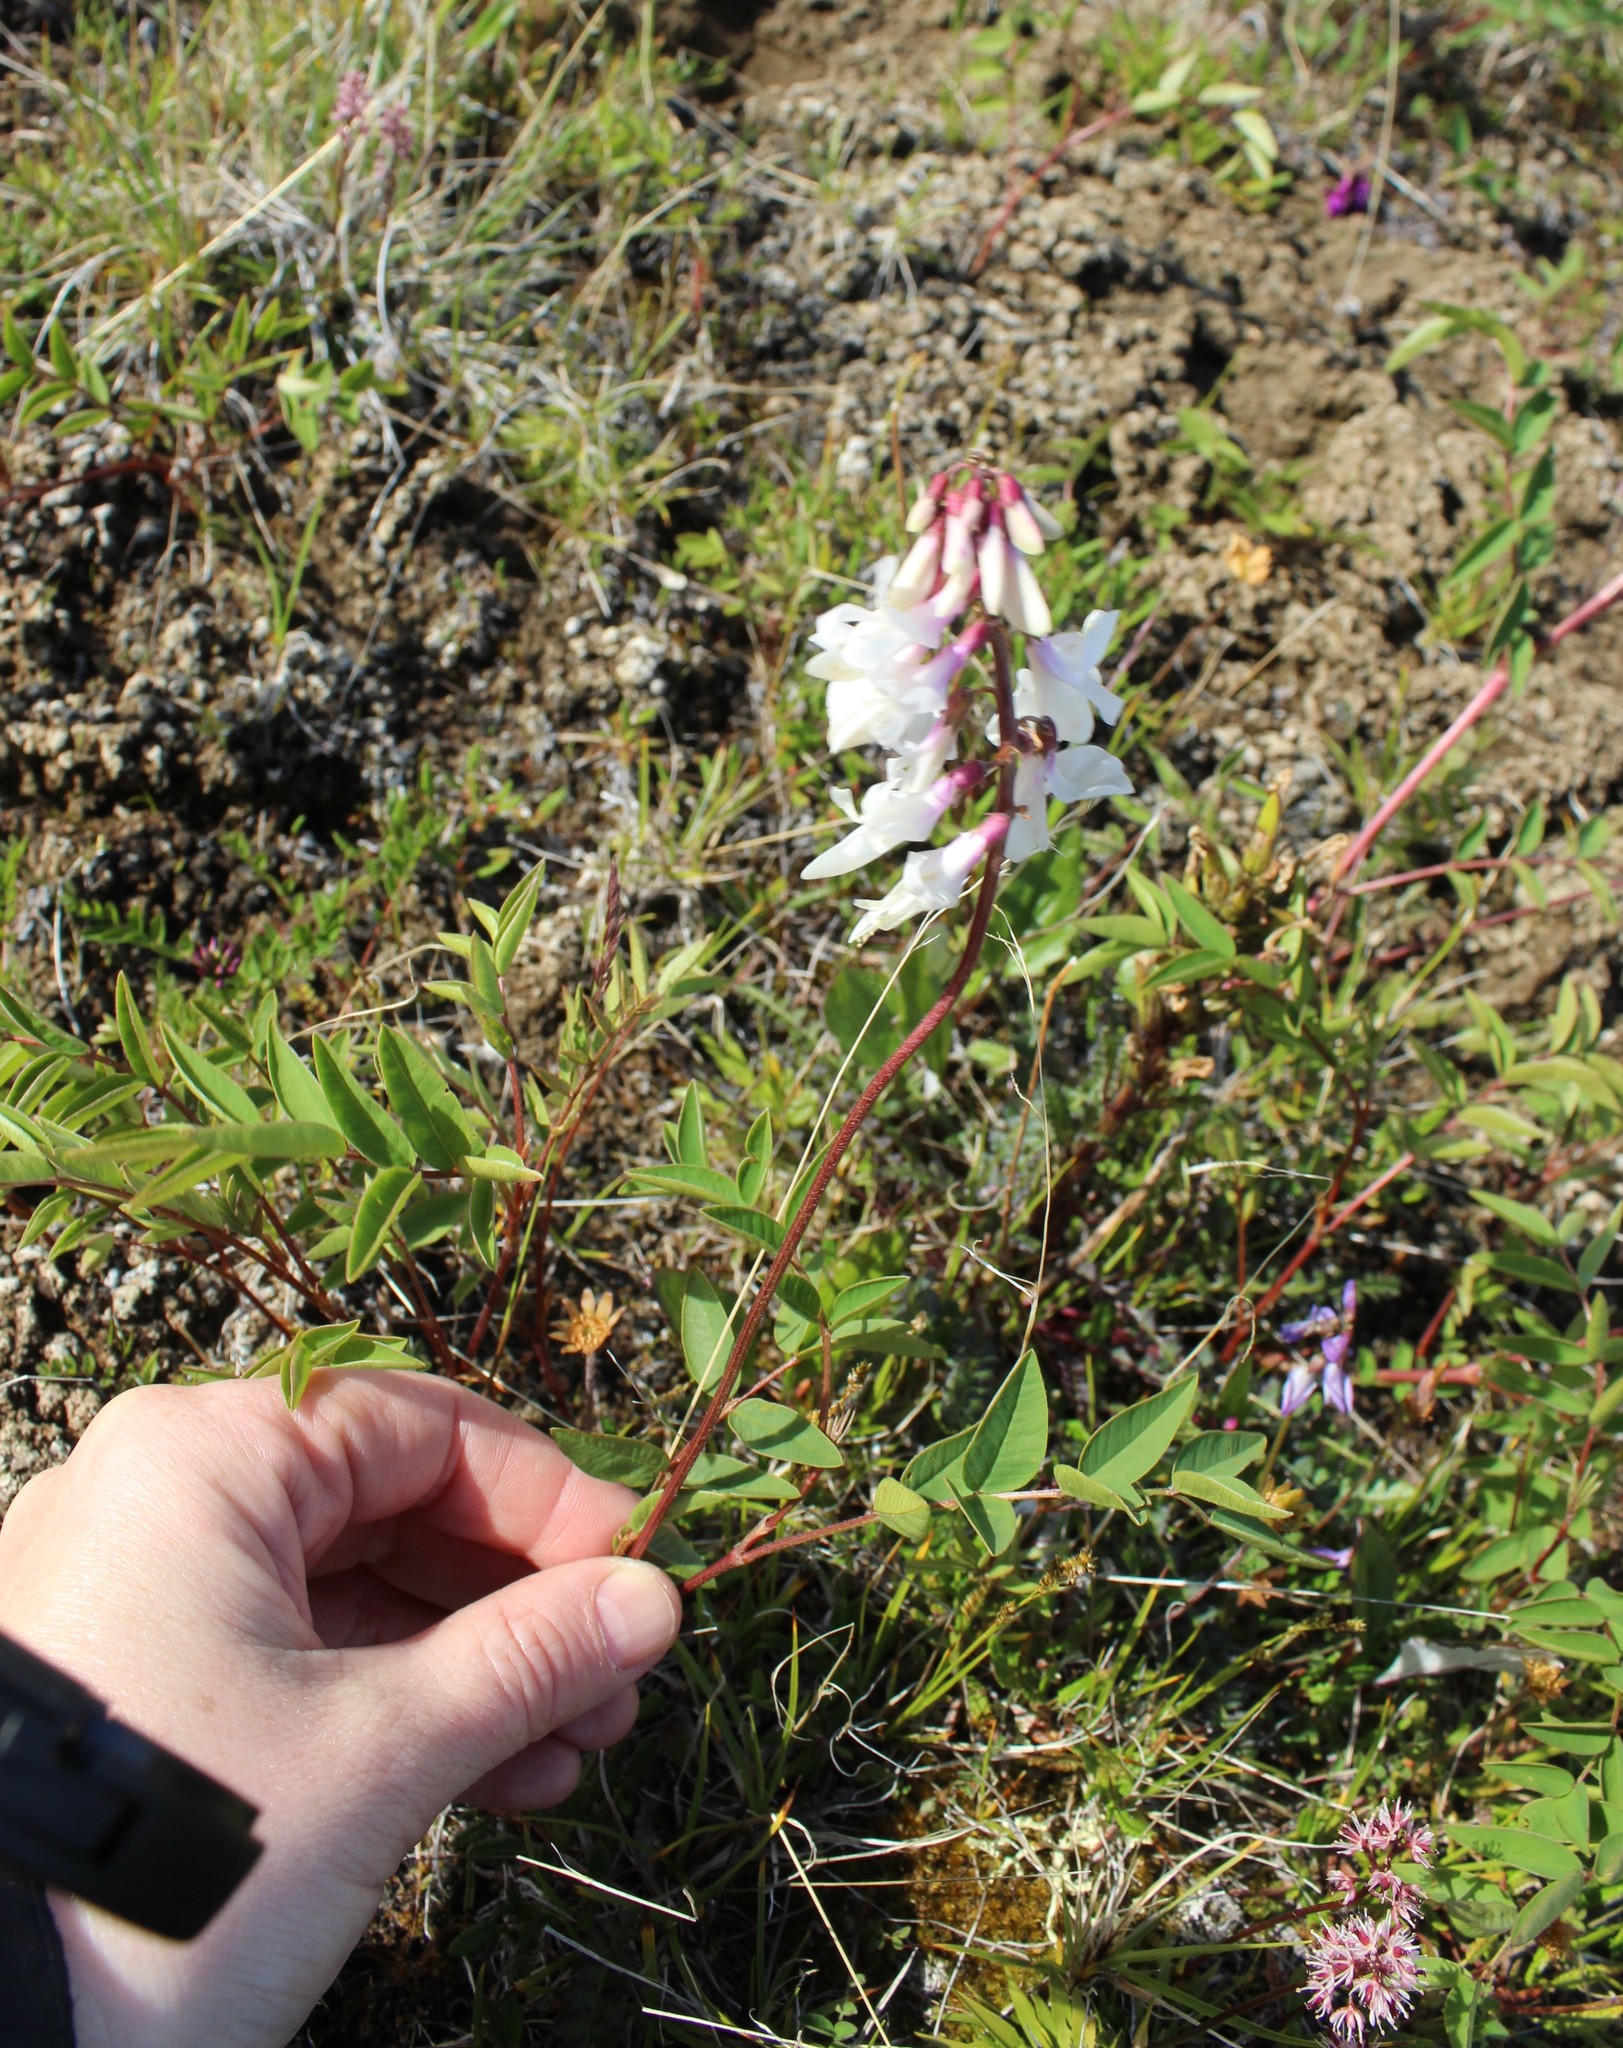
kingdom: Plantae
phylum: Tracheophyta
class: Magnoliopsida
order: Fabales
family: Fabaceae
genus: Hedysarum
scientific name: Hedysarum hedysaroides
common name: Alpine french-honeysuckle
